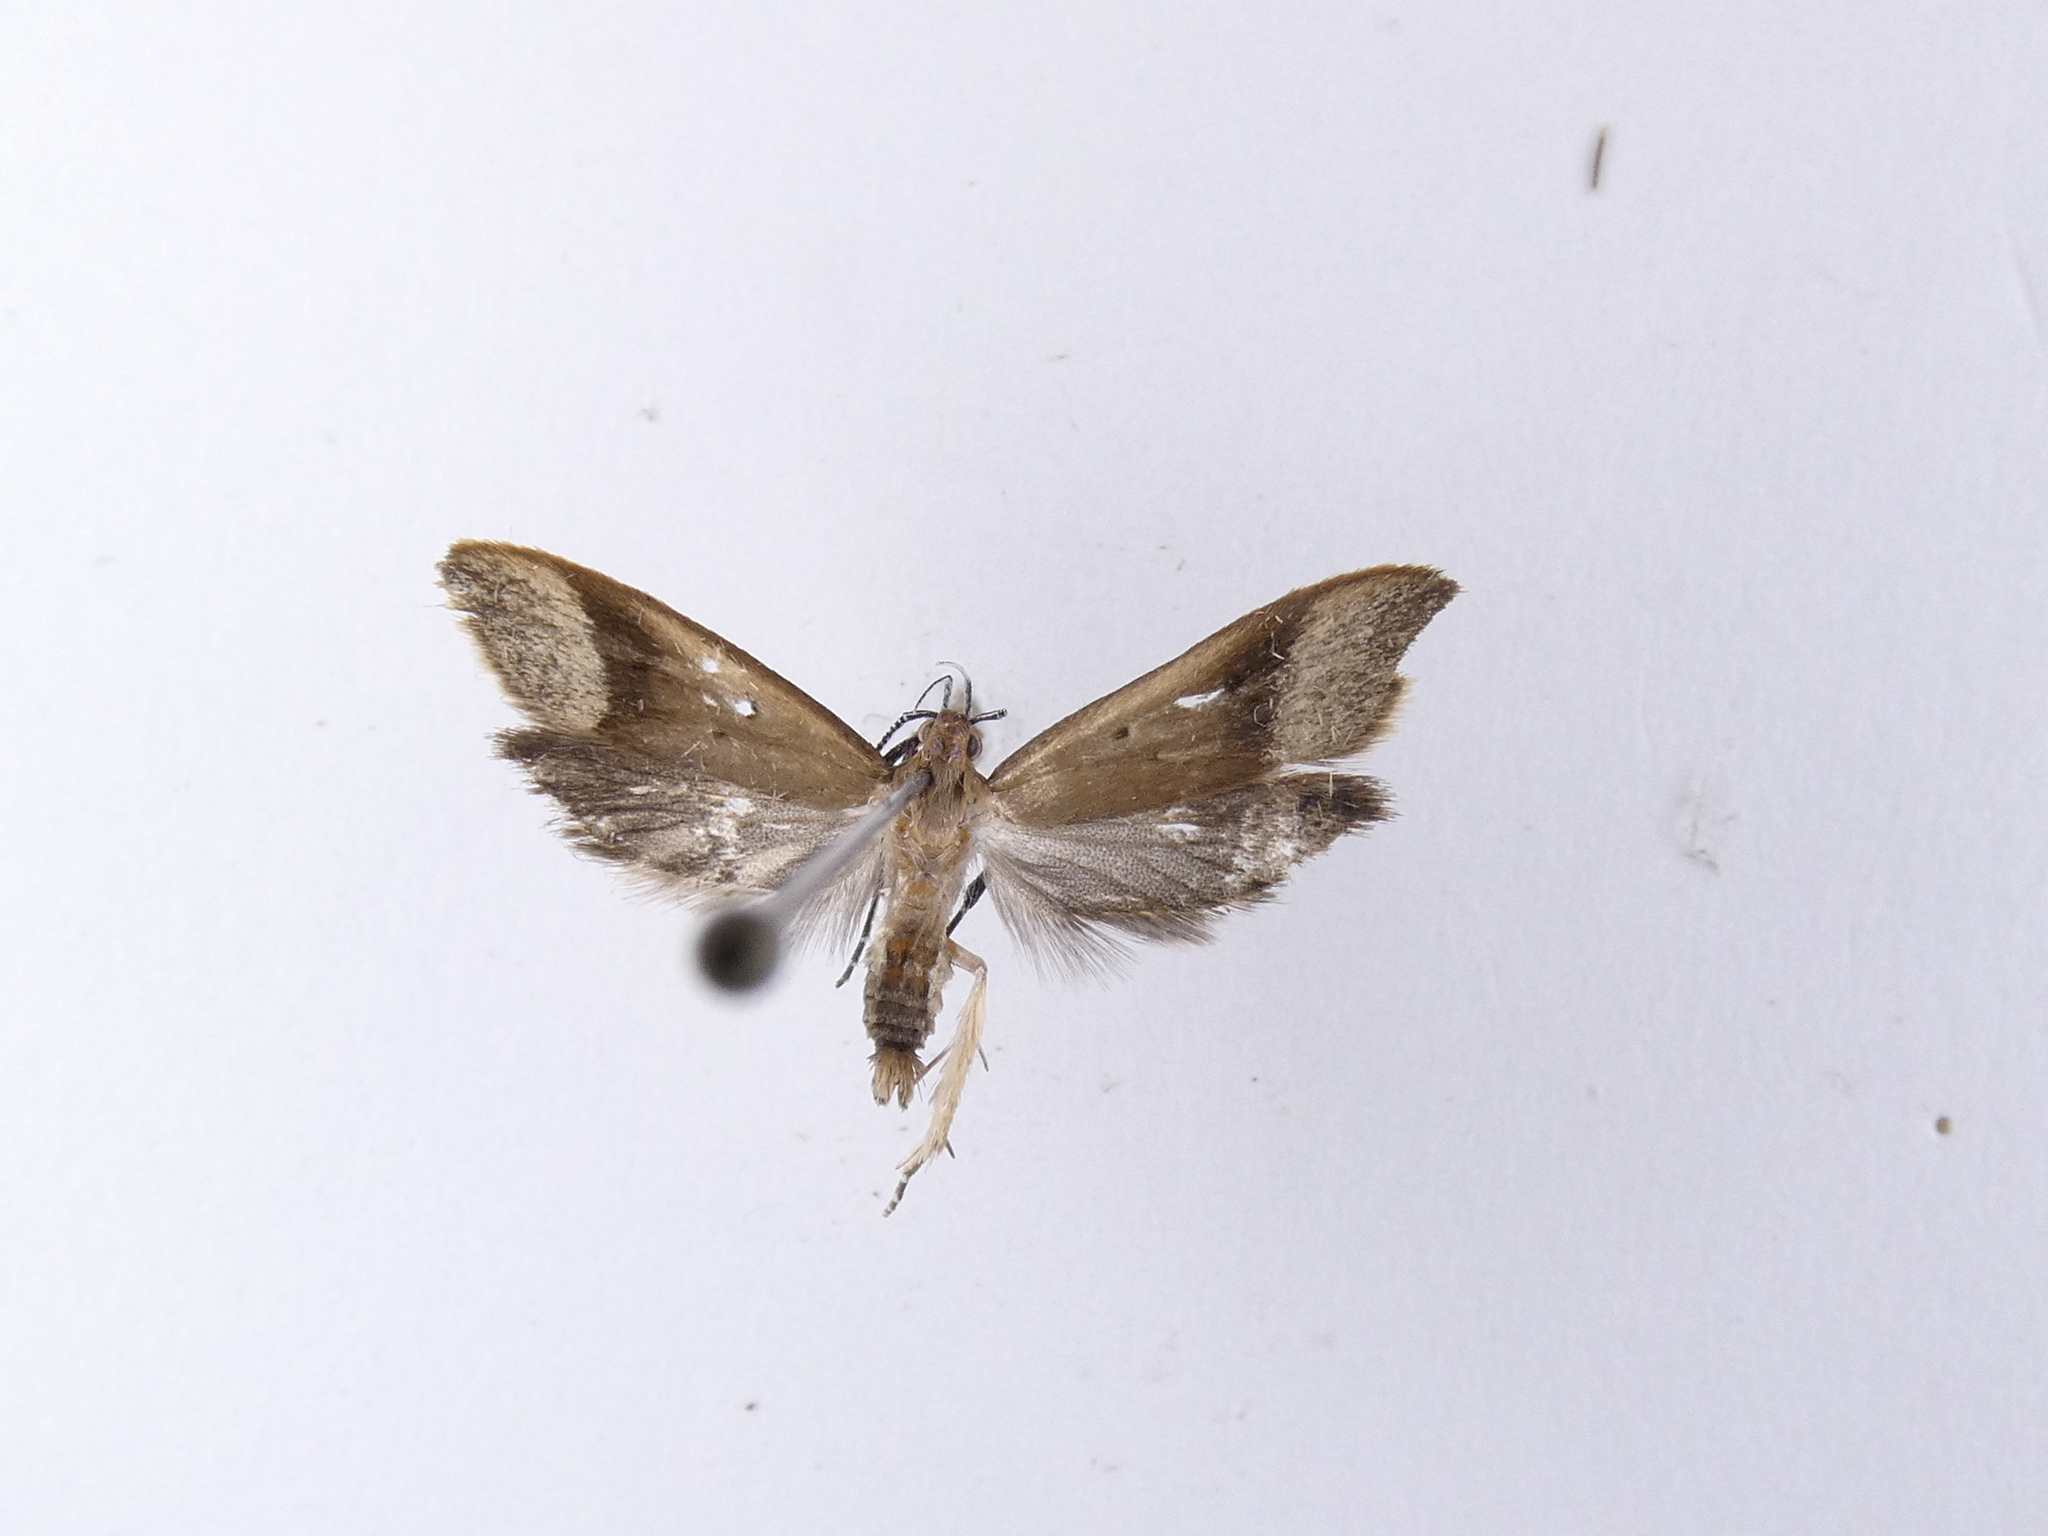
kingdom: Animalia
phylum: Arthropoda
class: Insecta
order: Lepidoptera
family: Oecophoridae
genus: Gymnobathra
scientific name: Gymnobathra hyetodes
